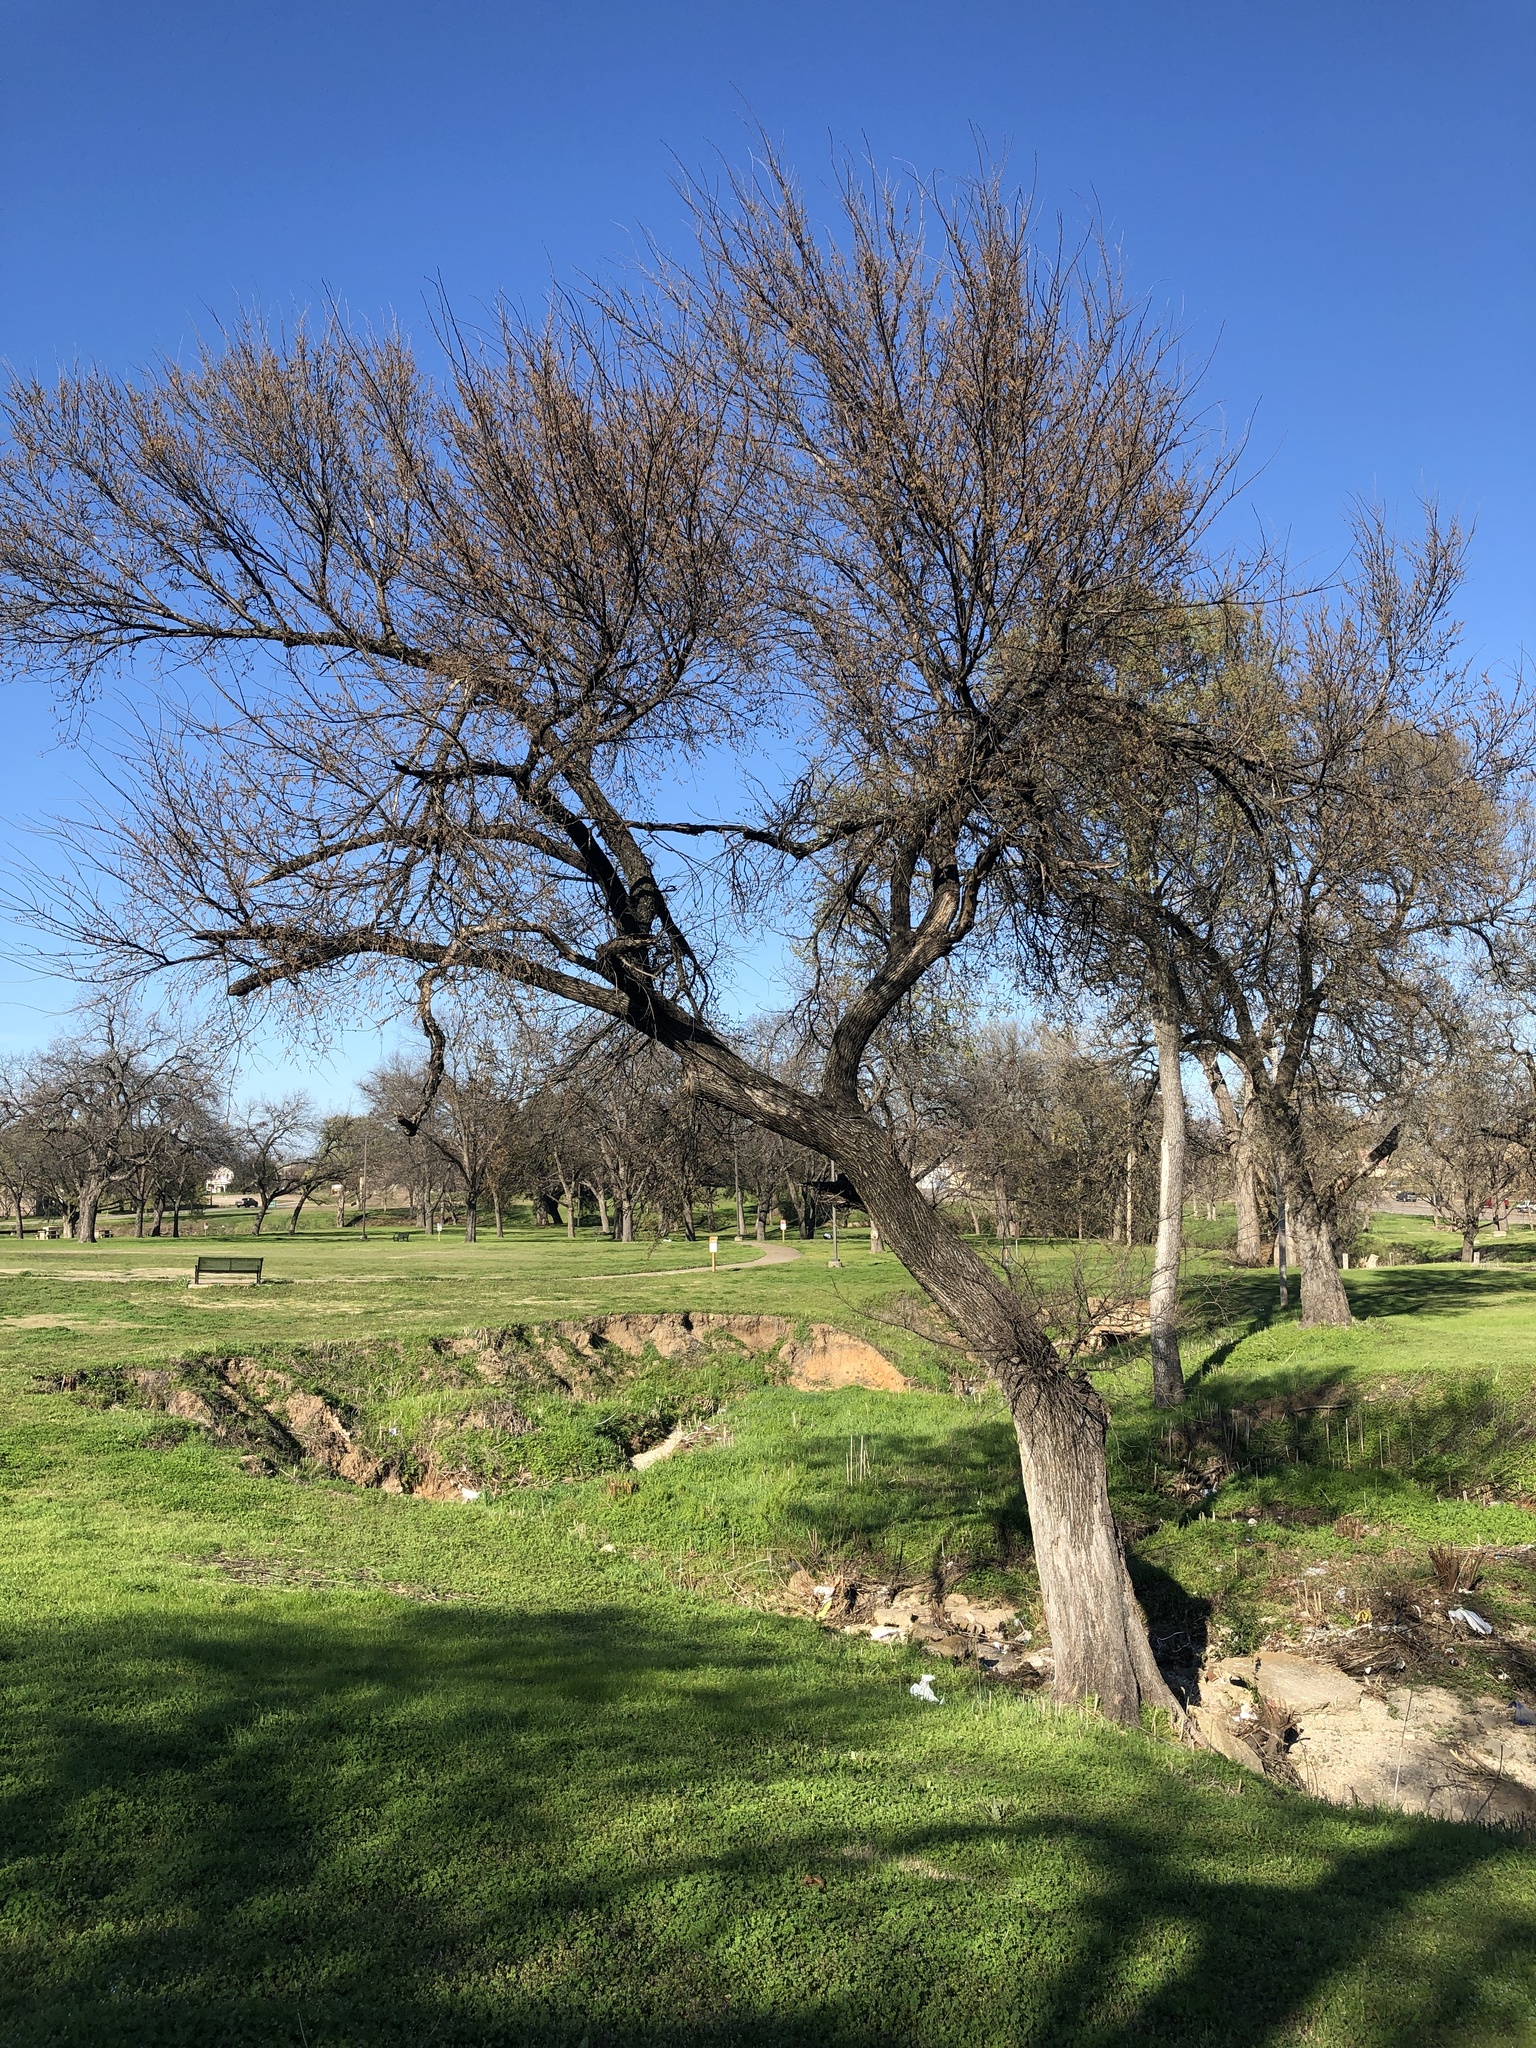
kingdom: Plantae
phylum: Tracheophyta
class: Magnoliopsida
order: Rosales
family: Ulmaceae
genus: Ulmus
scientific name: Ulmus americana
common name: American elm
